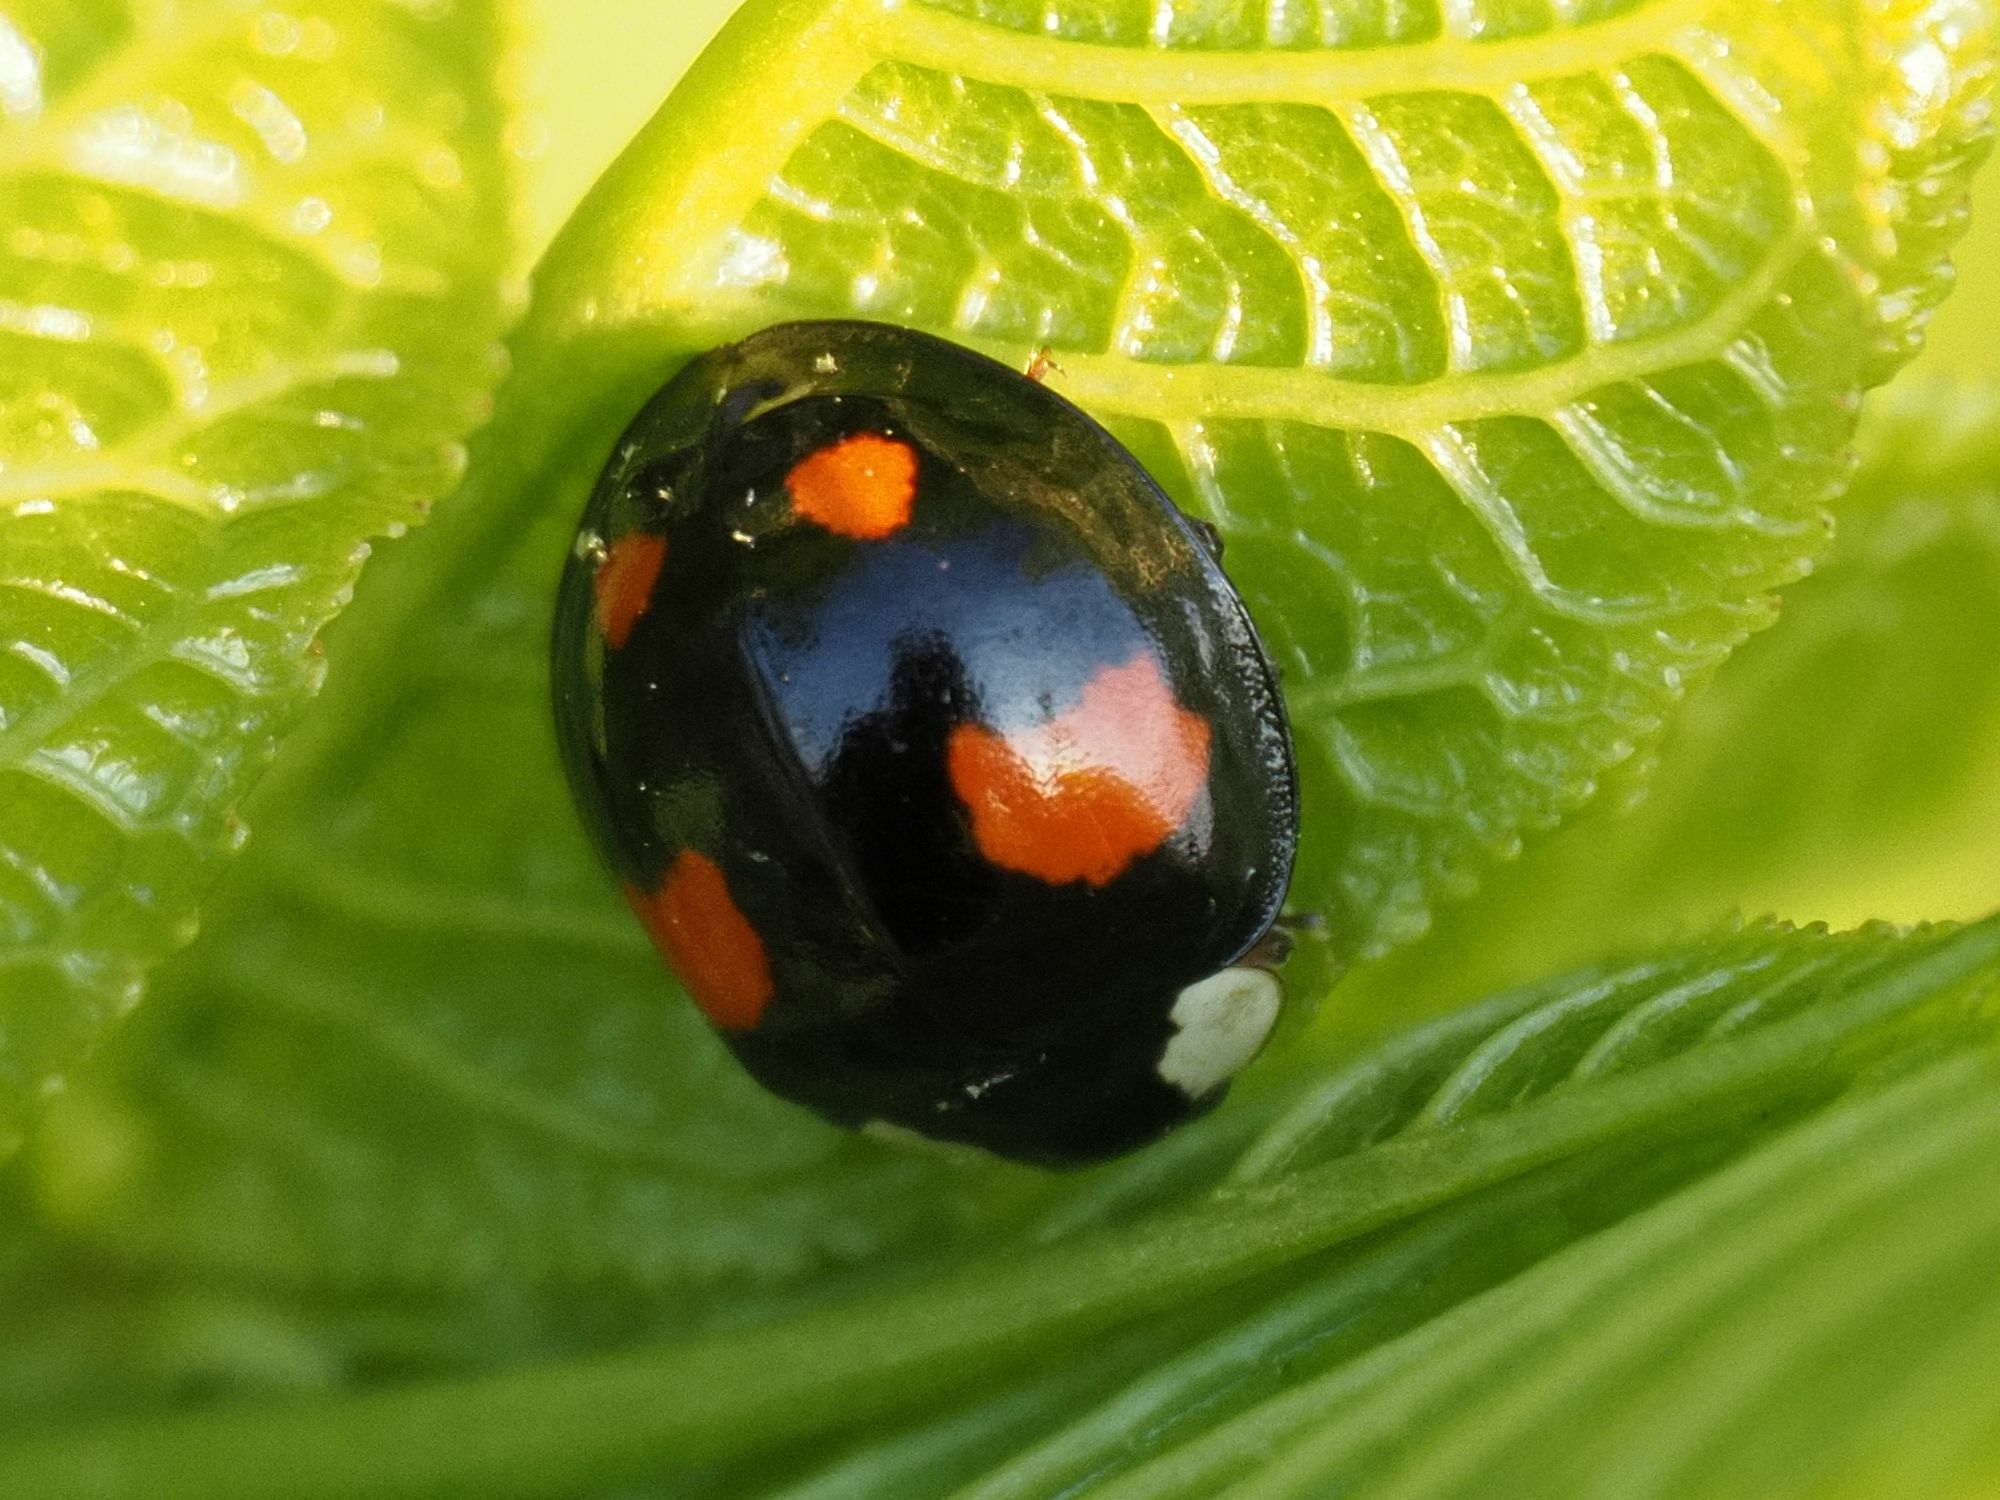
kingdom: Animalia
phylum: Arthropoda
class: Insecta
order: Coleoptera
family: Coccinellidae
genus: Harmonia
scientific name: Harmonia axyridis
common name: Harlequin ladybird
